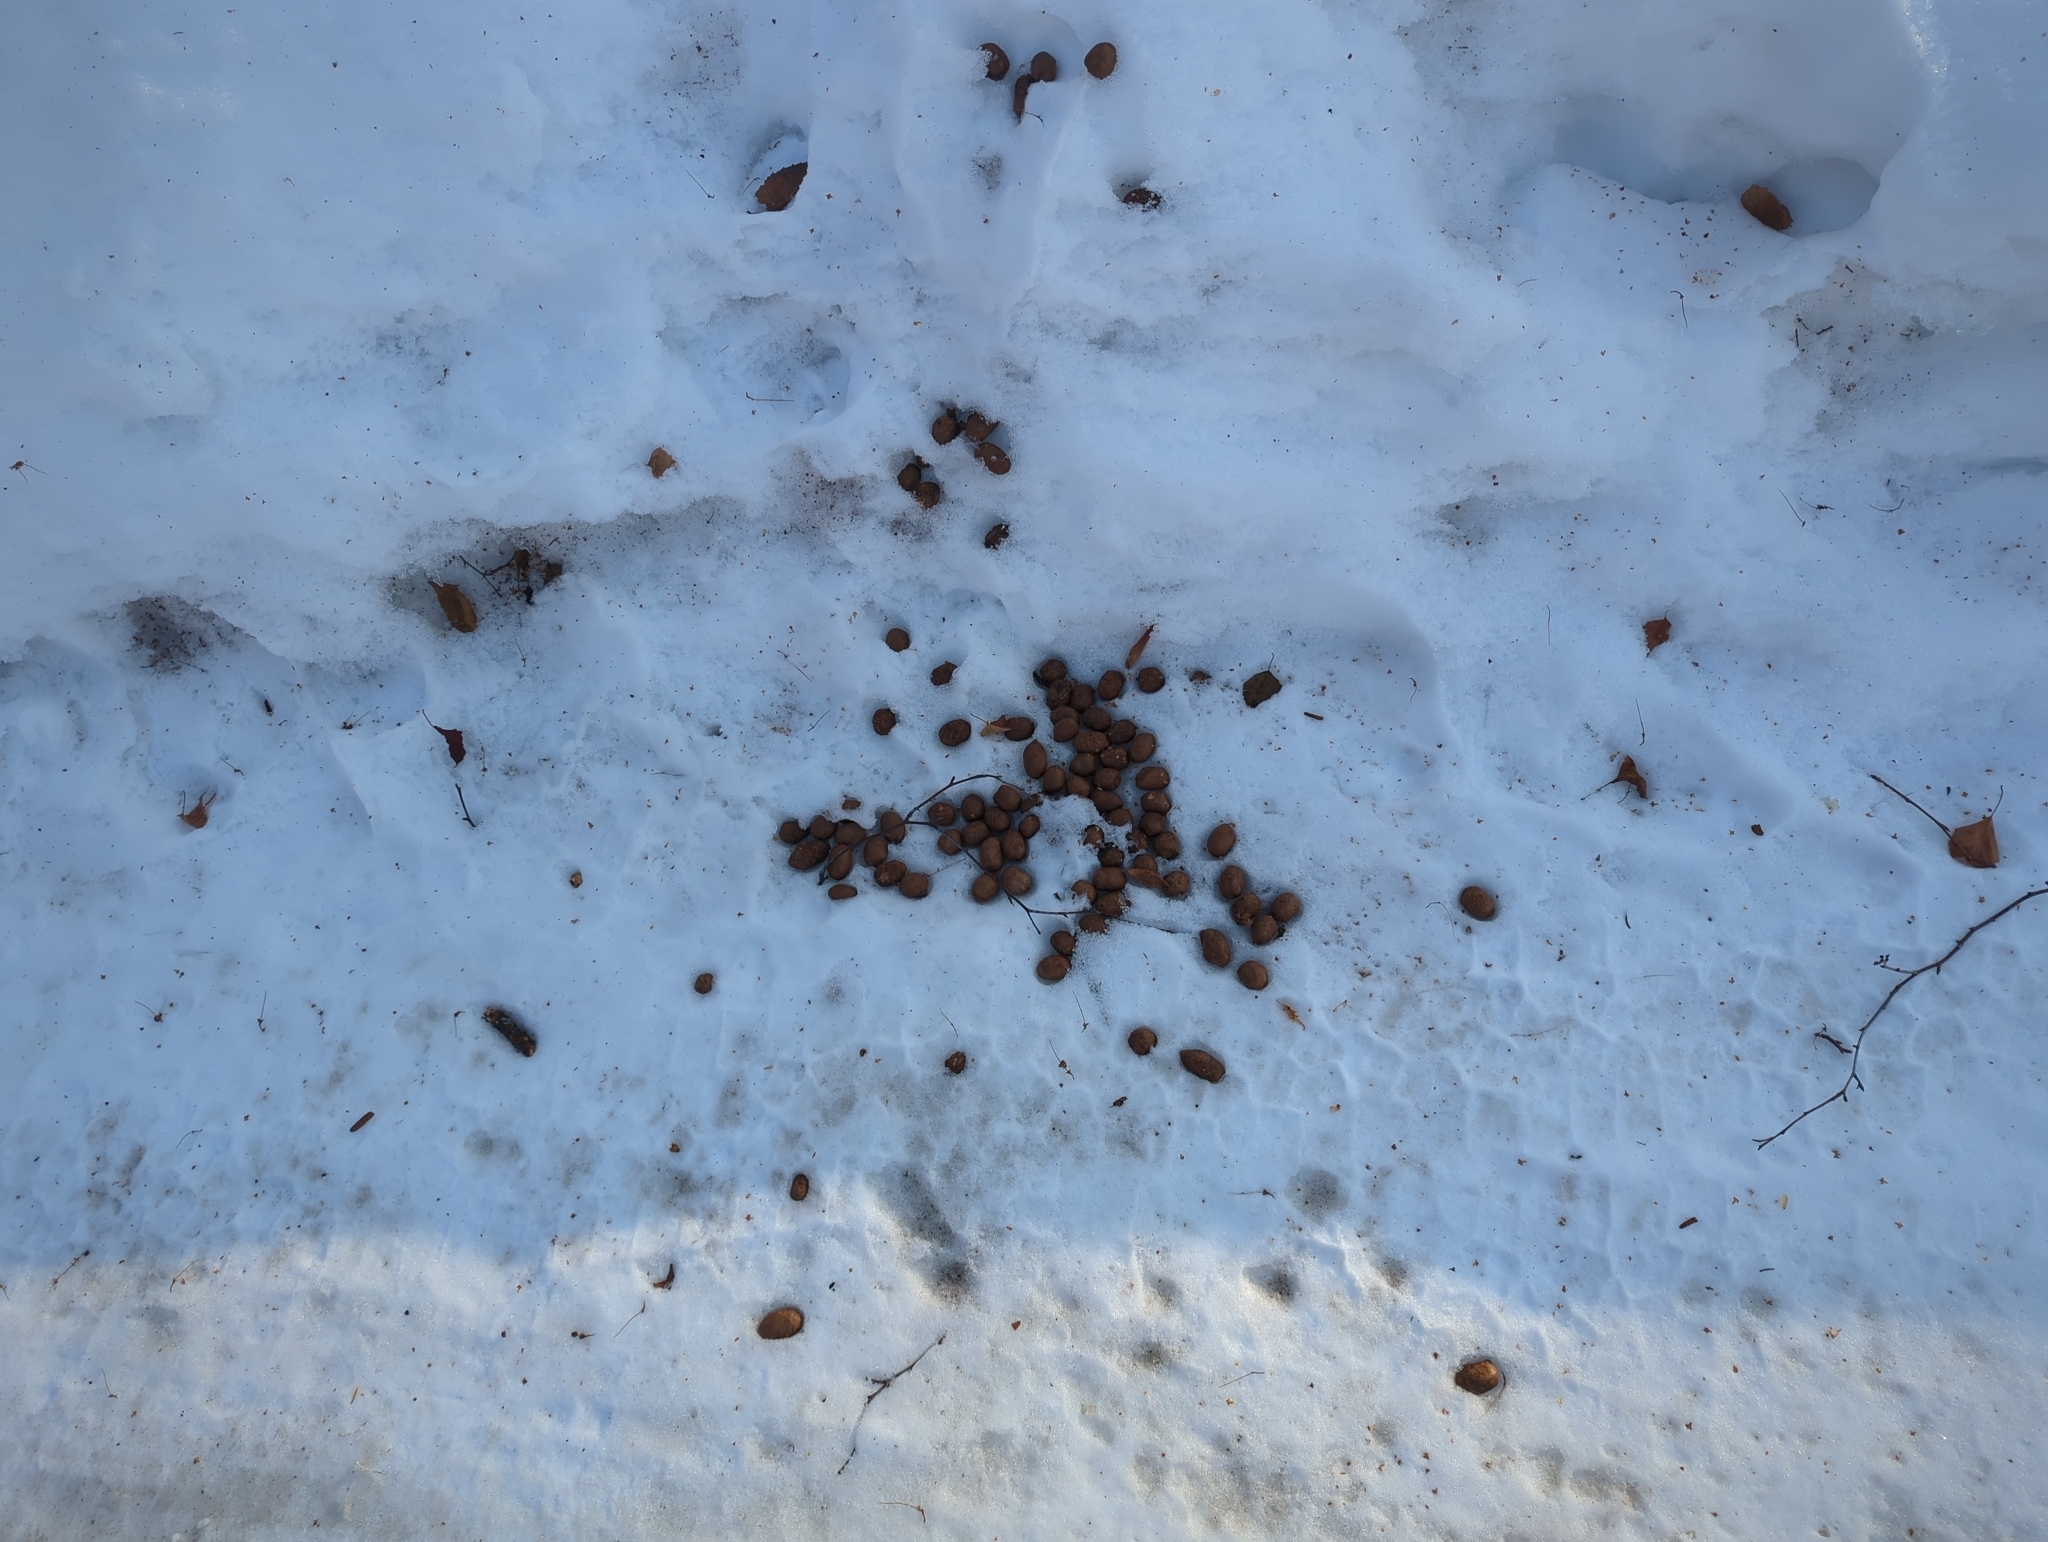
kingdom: Animalia
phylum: Chordata
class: Mammalia
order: Artiodactyla
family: Cervidae
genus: Alces
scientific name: Alces alces
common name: Moose
